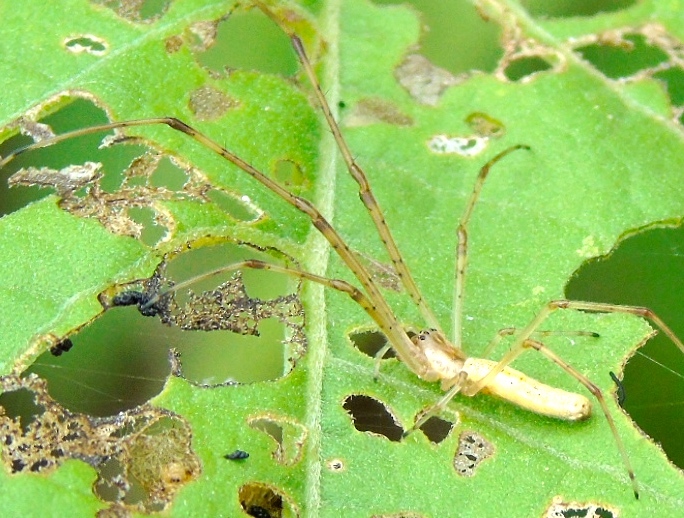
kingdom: Animalia
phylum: Arthropoda
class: Arachnida
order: Araneae
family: Tetragnathidae
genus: Tetragnatha
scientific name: Tetragnatha
